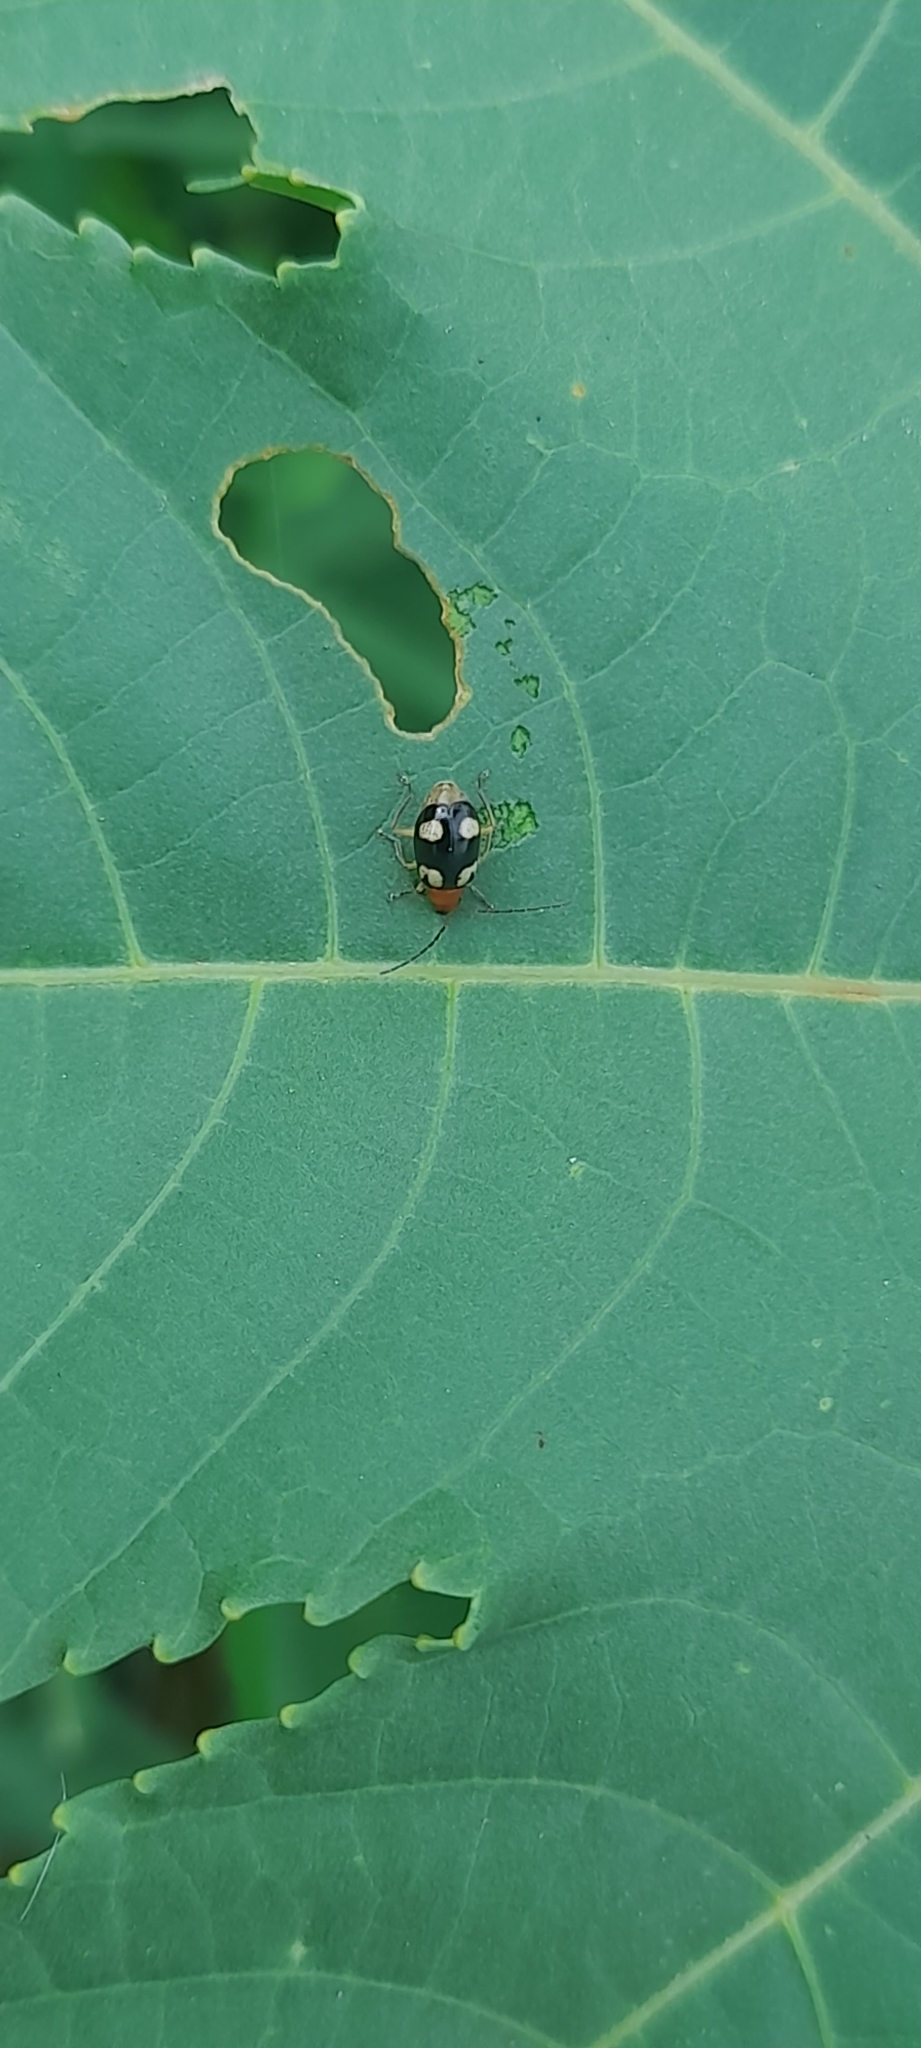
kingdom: Animalia
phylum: Arthropoda
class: Insecta
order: Coleoptera
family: Chrysomelidae
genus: Monolepta
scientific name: Monolepta signata
